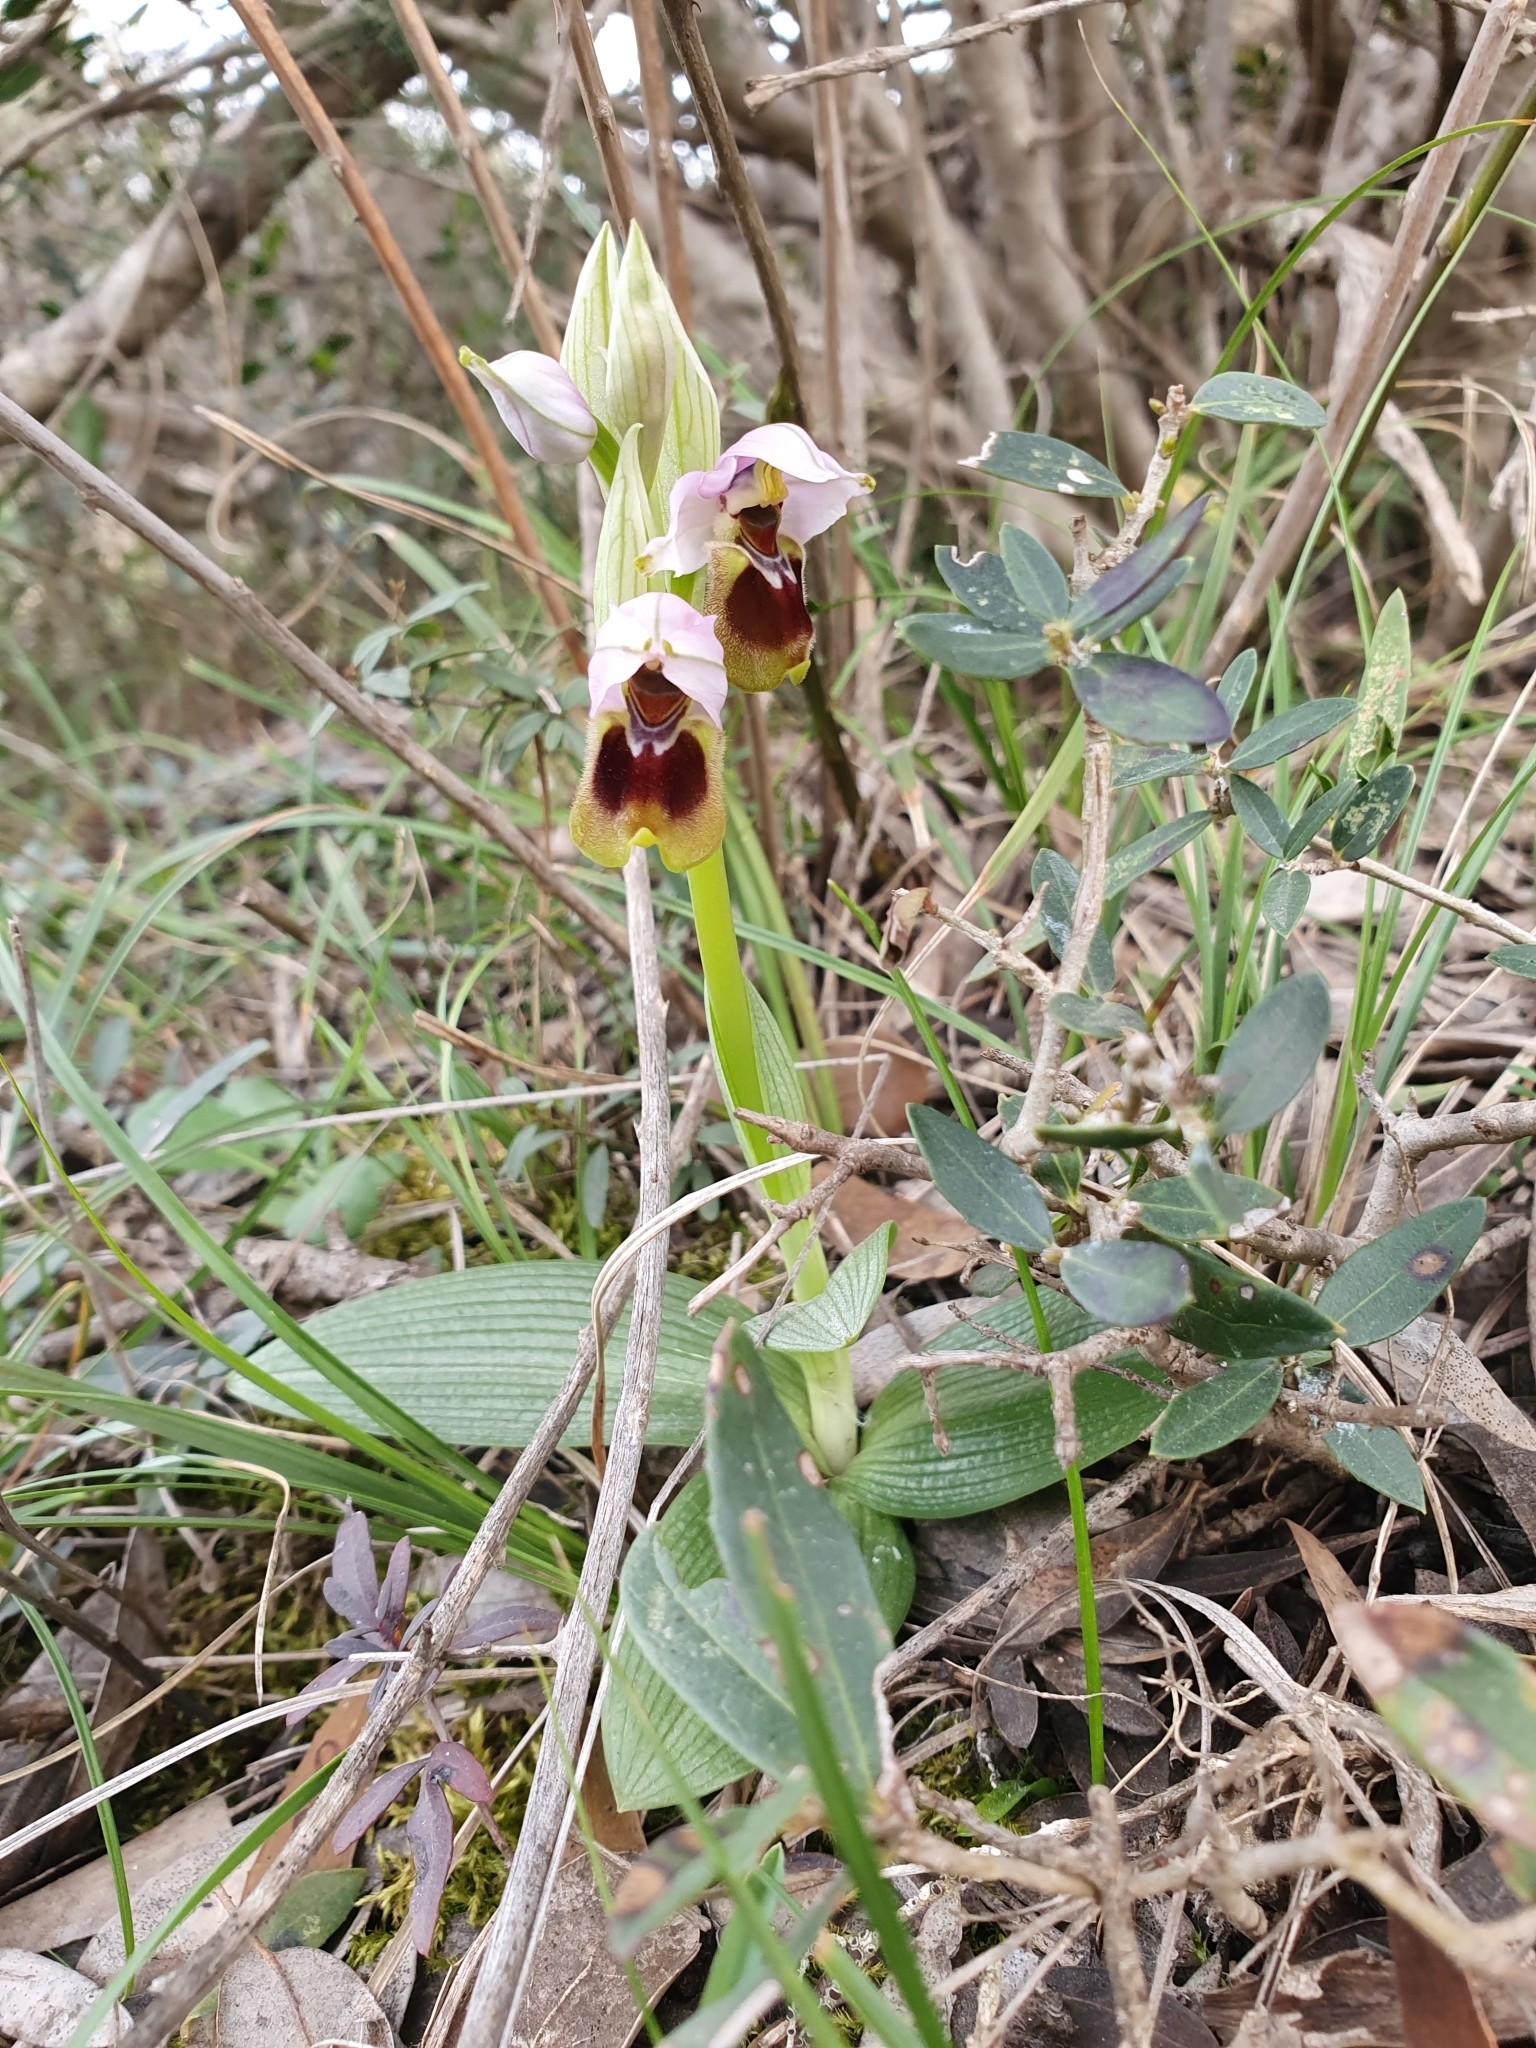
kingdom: Plantae
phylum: Tracheophyta
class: Liliopsida
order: Asparagales
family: Orchidaceae
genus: Ophrys
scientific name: Ophrys tenthredinifera
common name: Sawfly orchid
